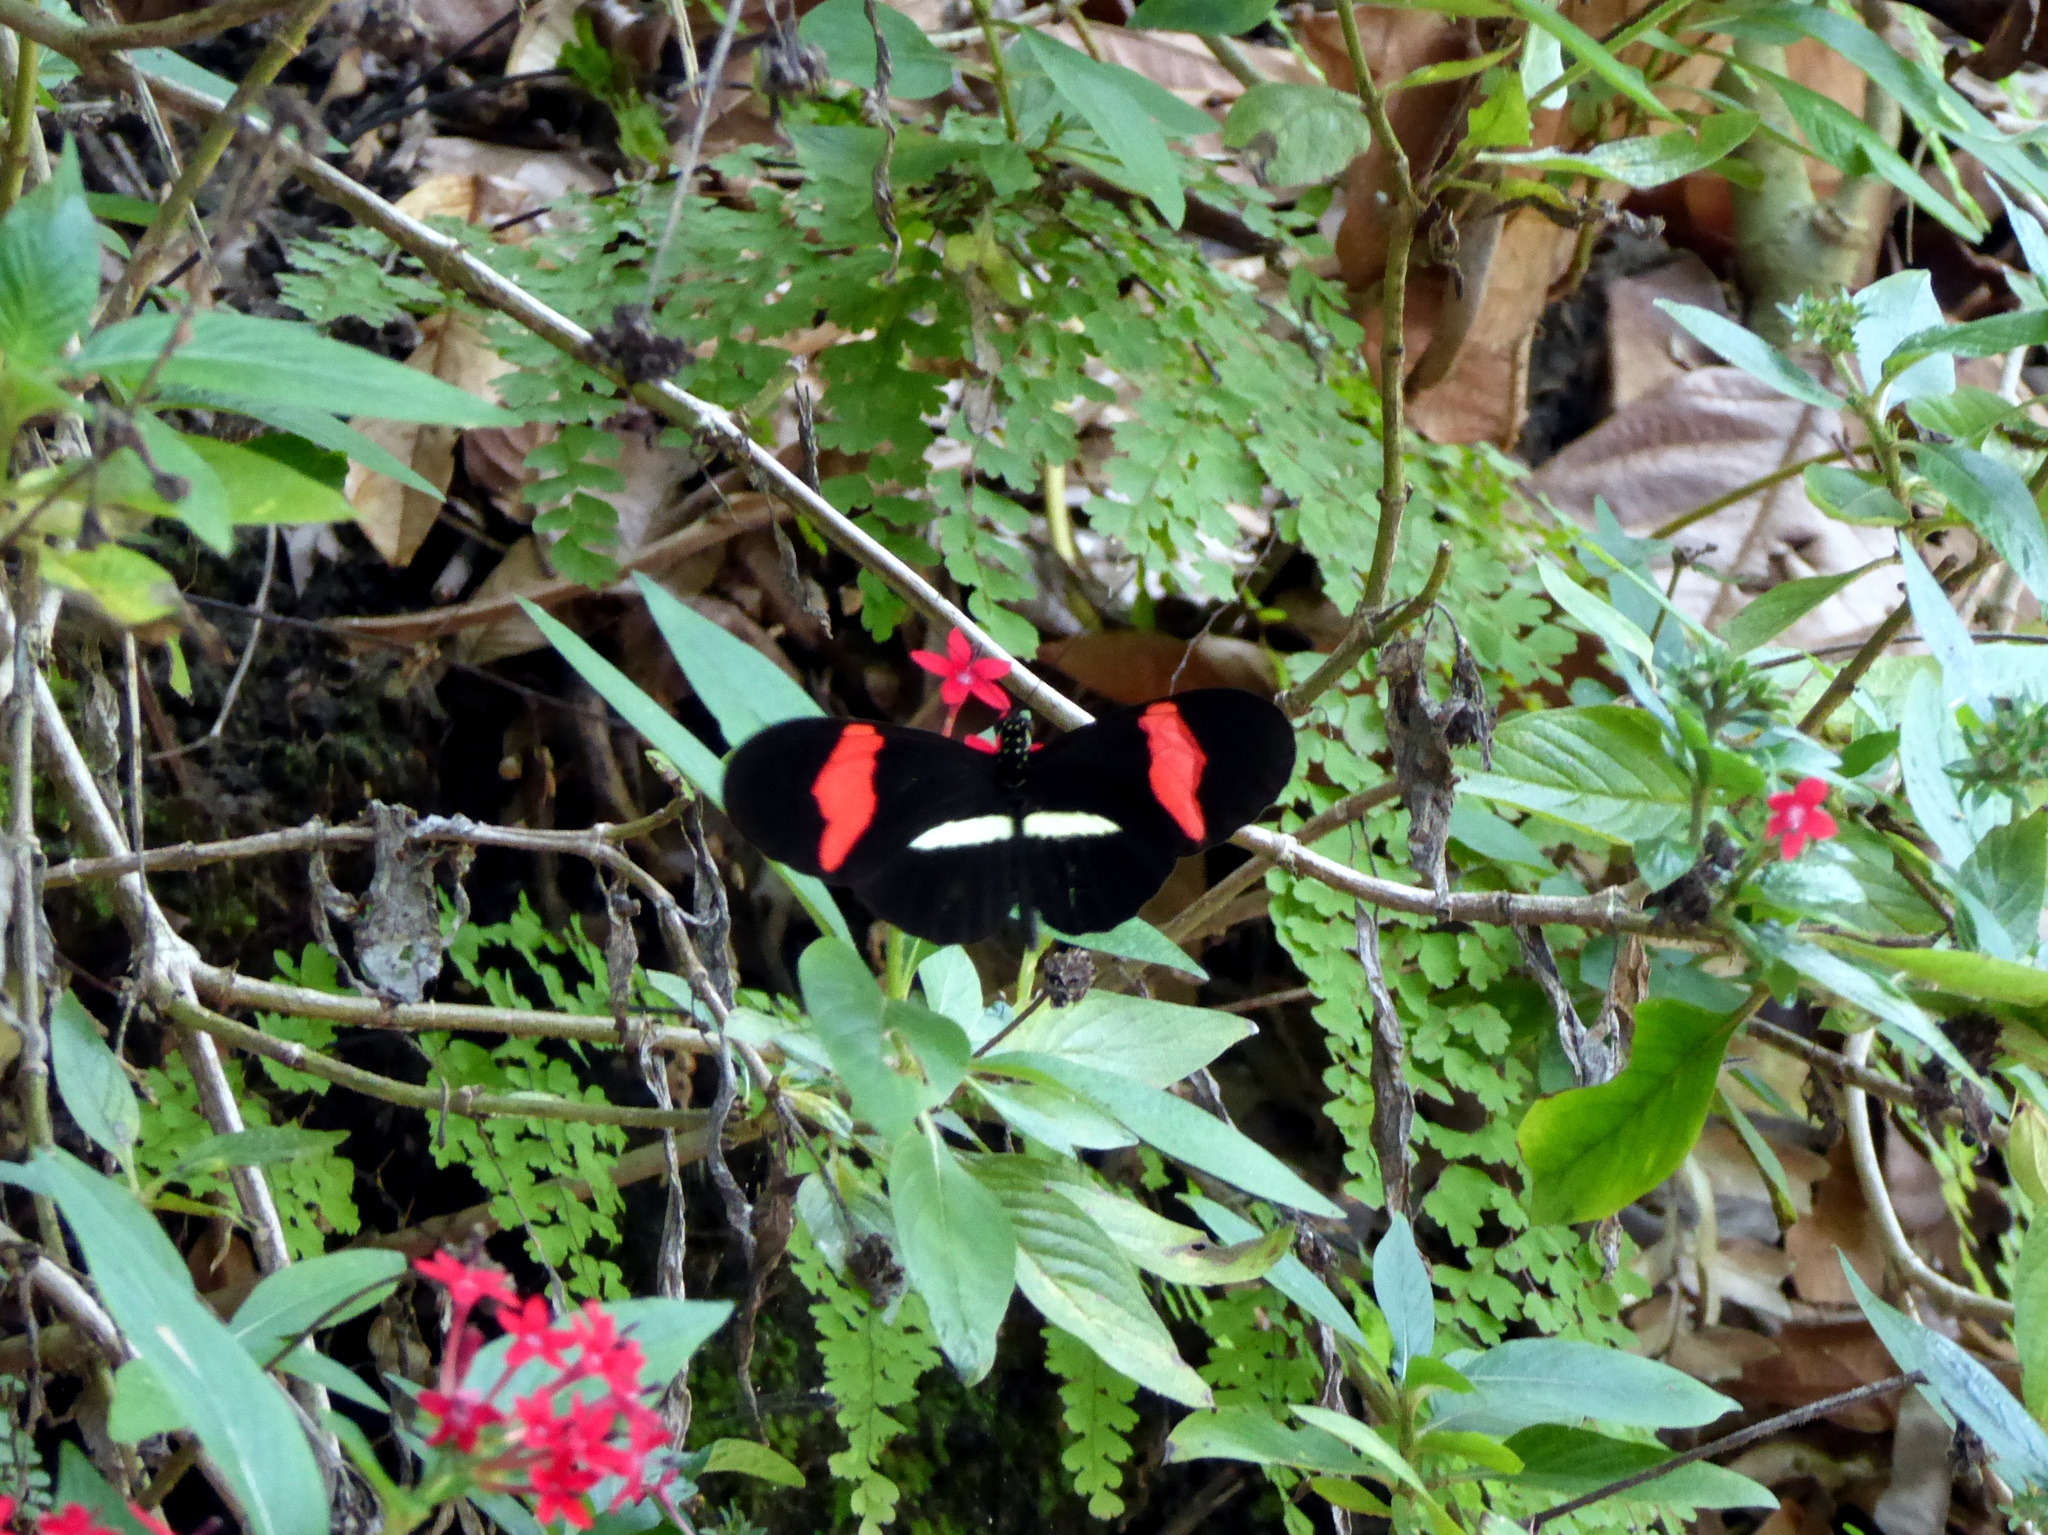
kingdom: Animalia
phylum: Arthropoda
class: Insecta
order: Lepidoptera
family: Nymphalidae
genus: Heliconius
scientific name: Heliconius erato
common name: Common patch longwing
